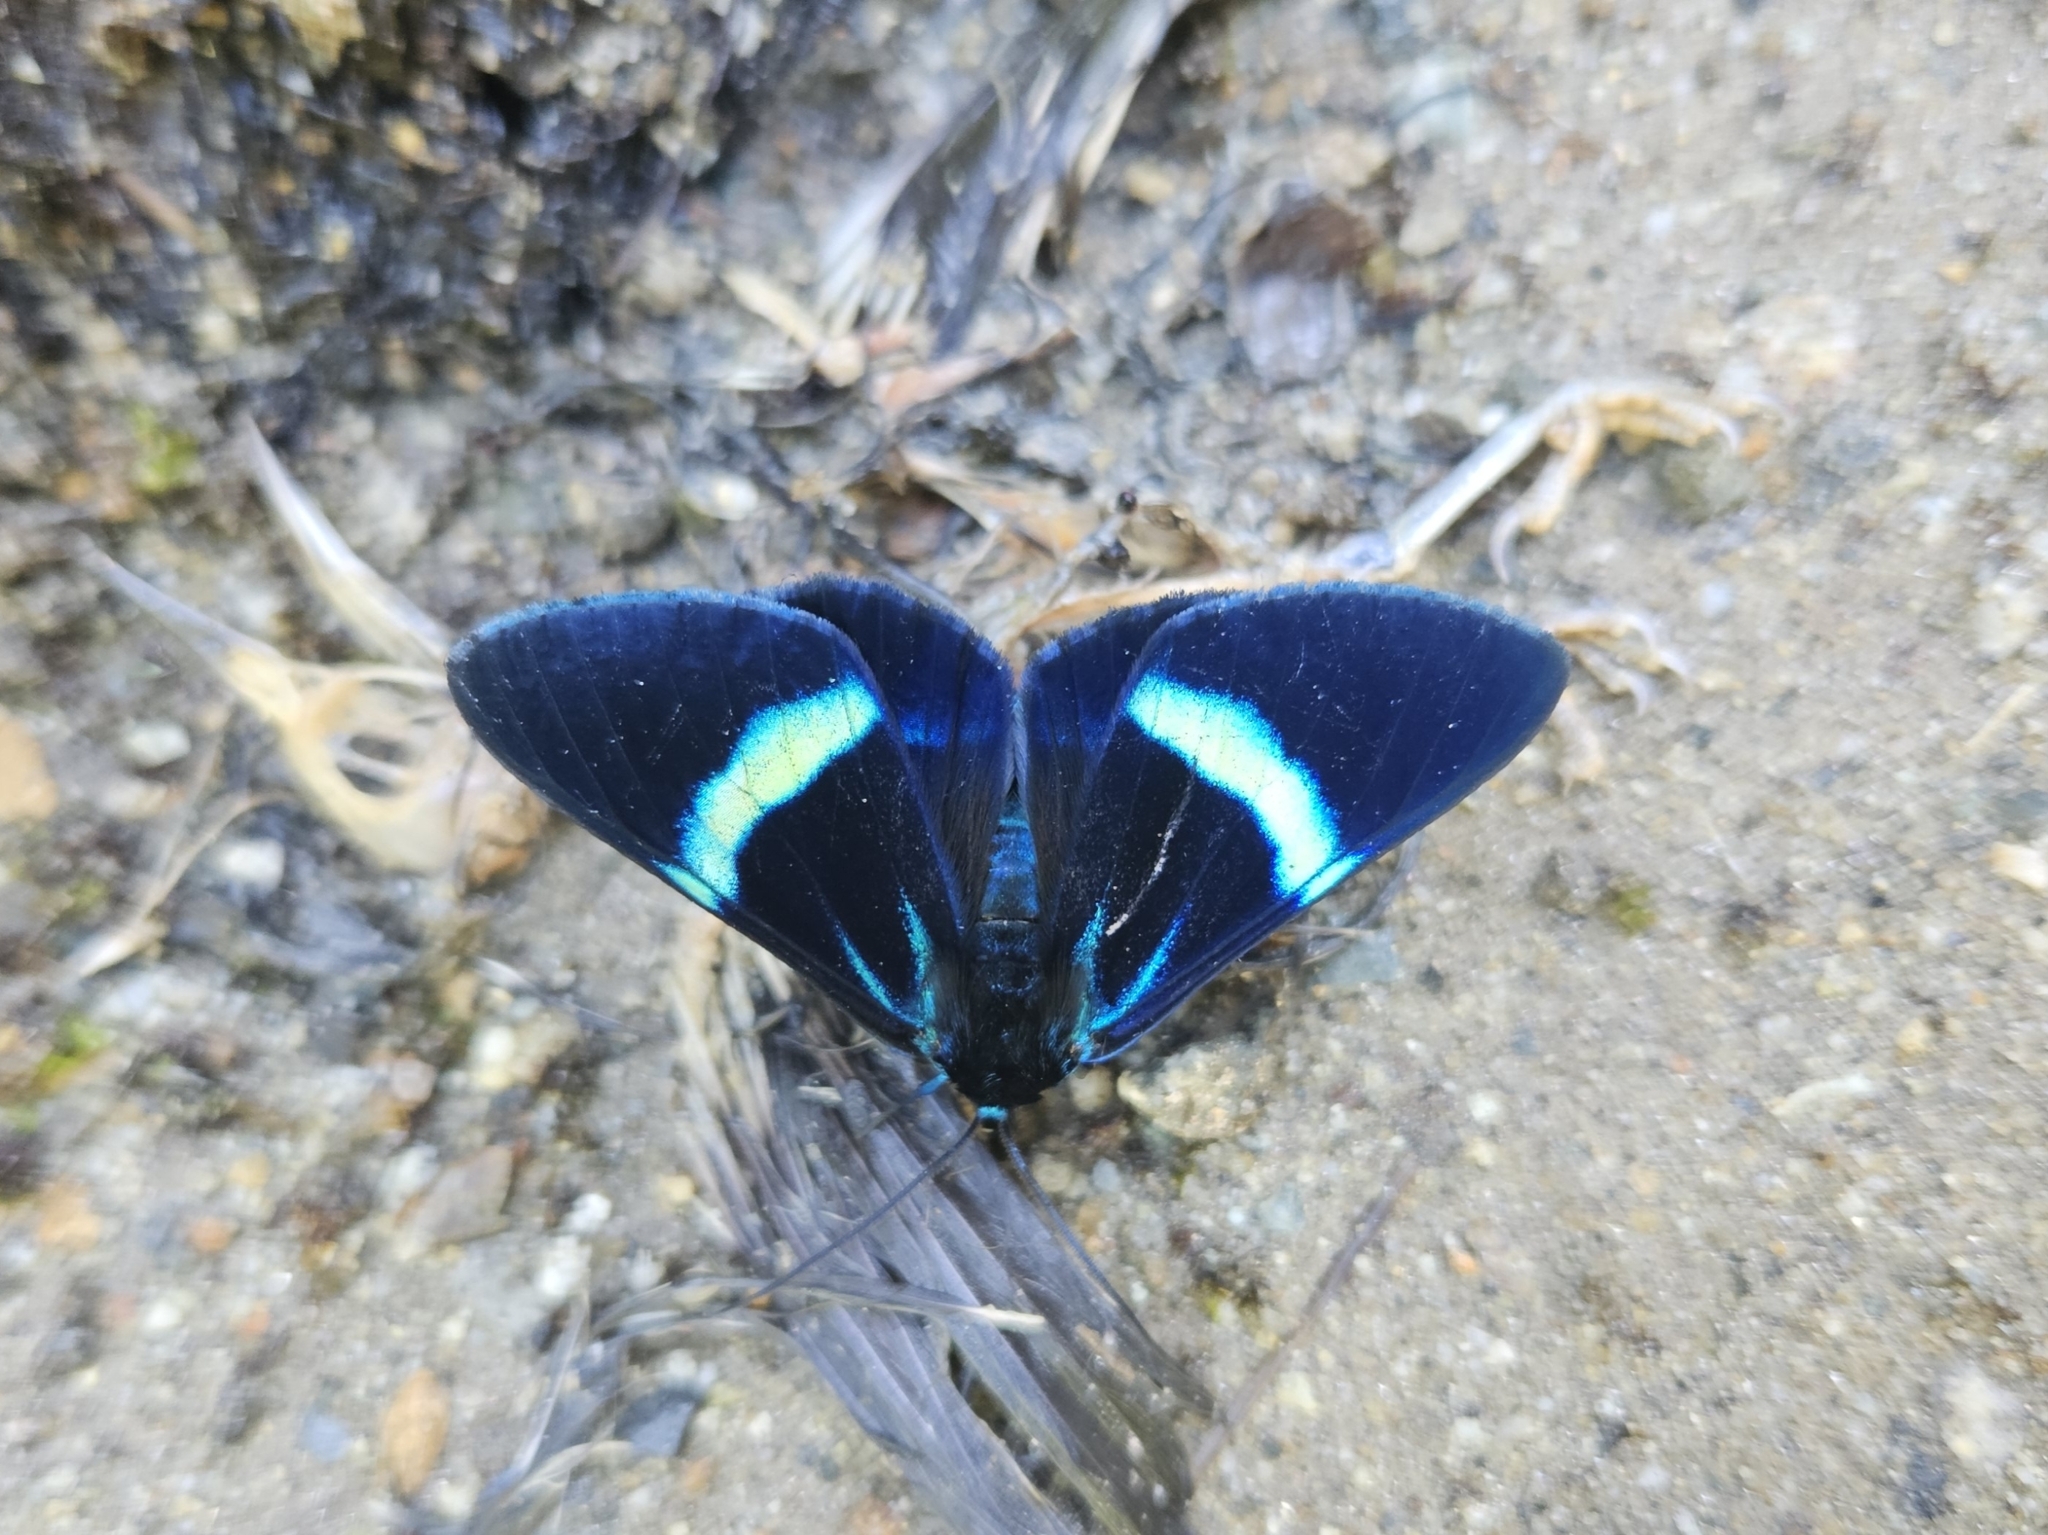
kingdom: Animalia
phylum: Arthropoda
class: Insecta
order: Lepidoptera
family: Geometridae
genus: Milionia
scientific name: Milionia
